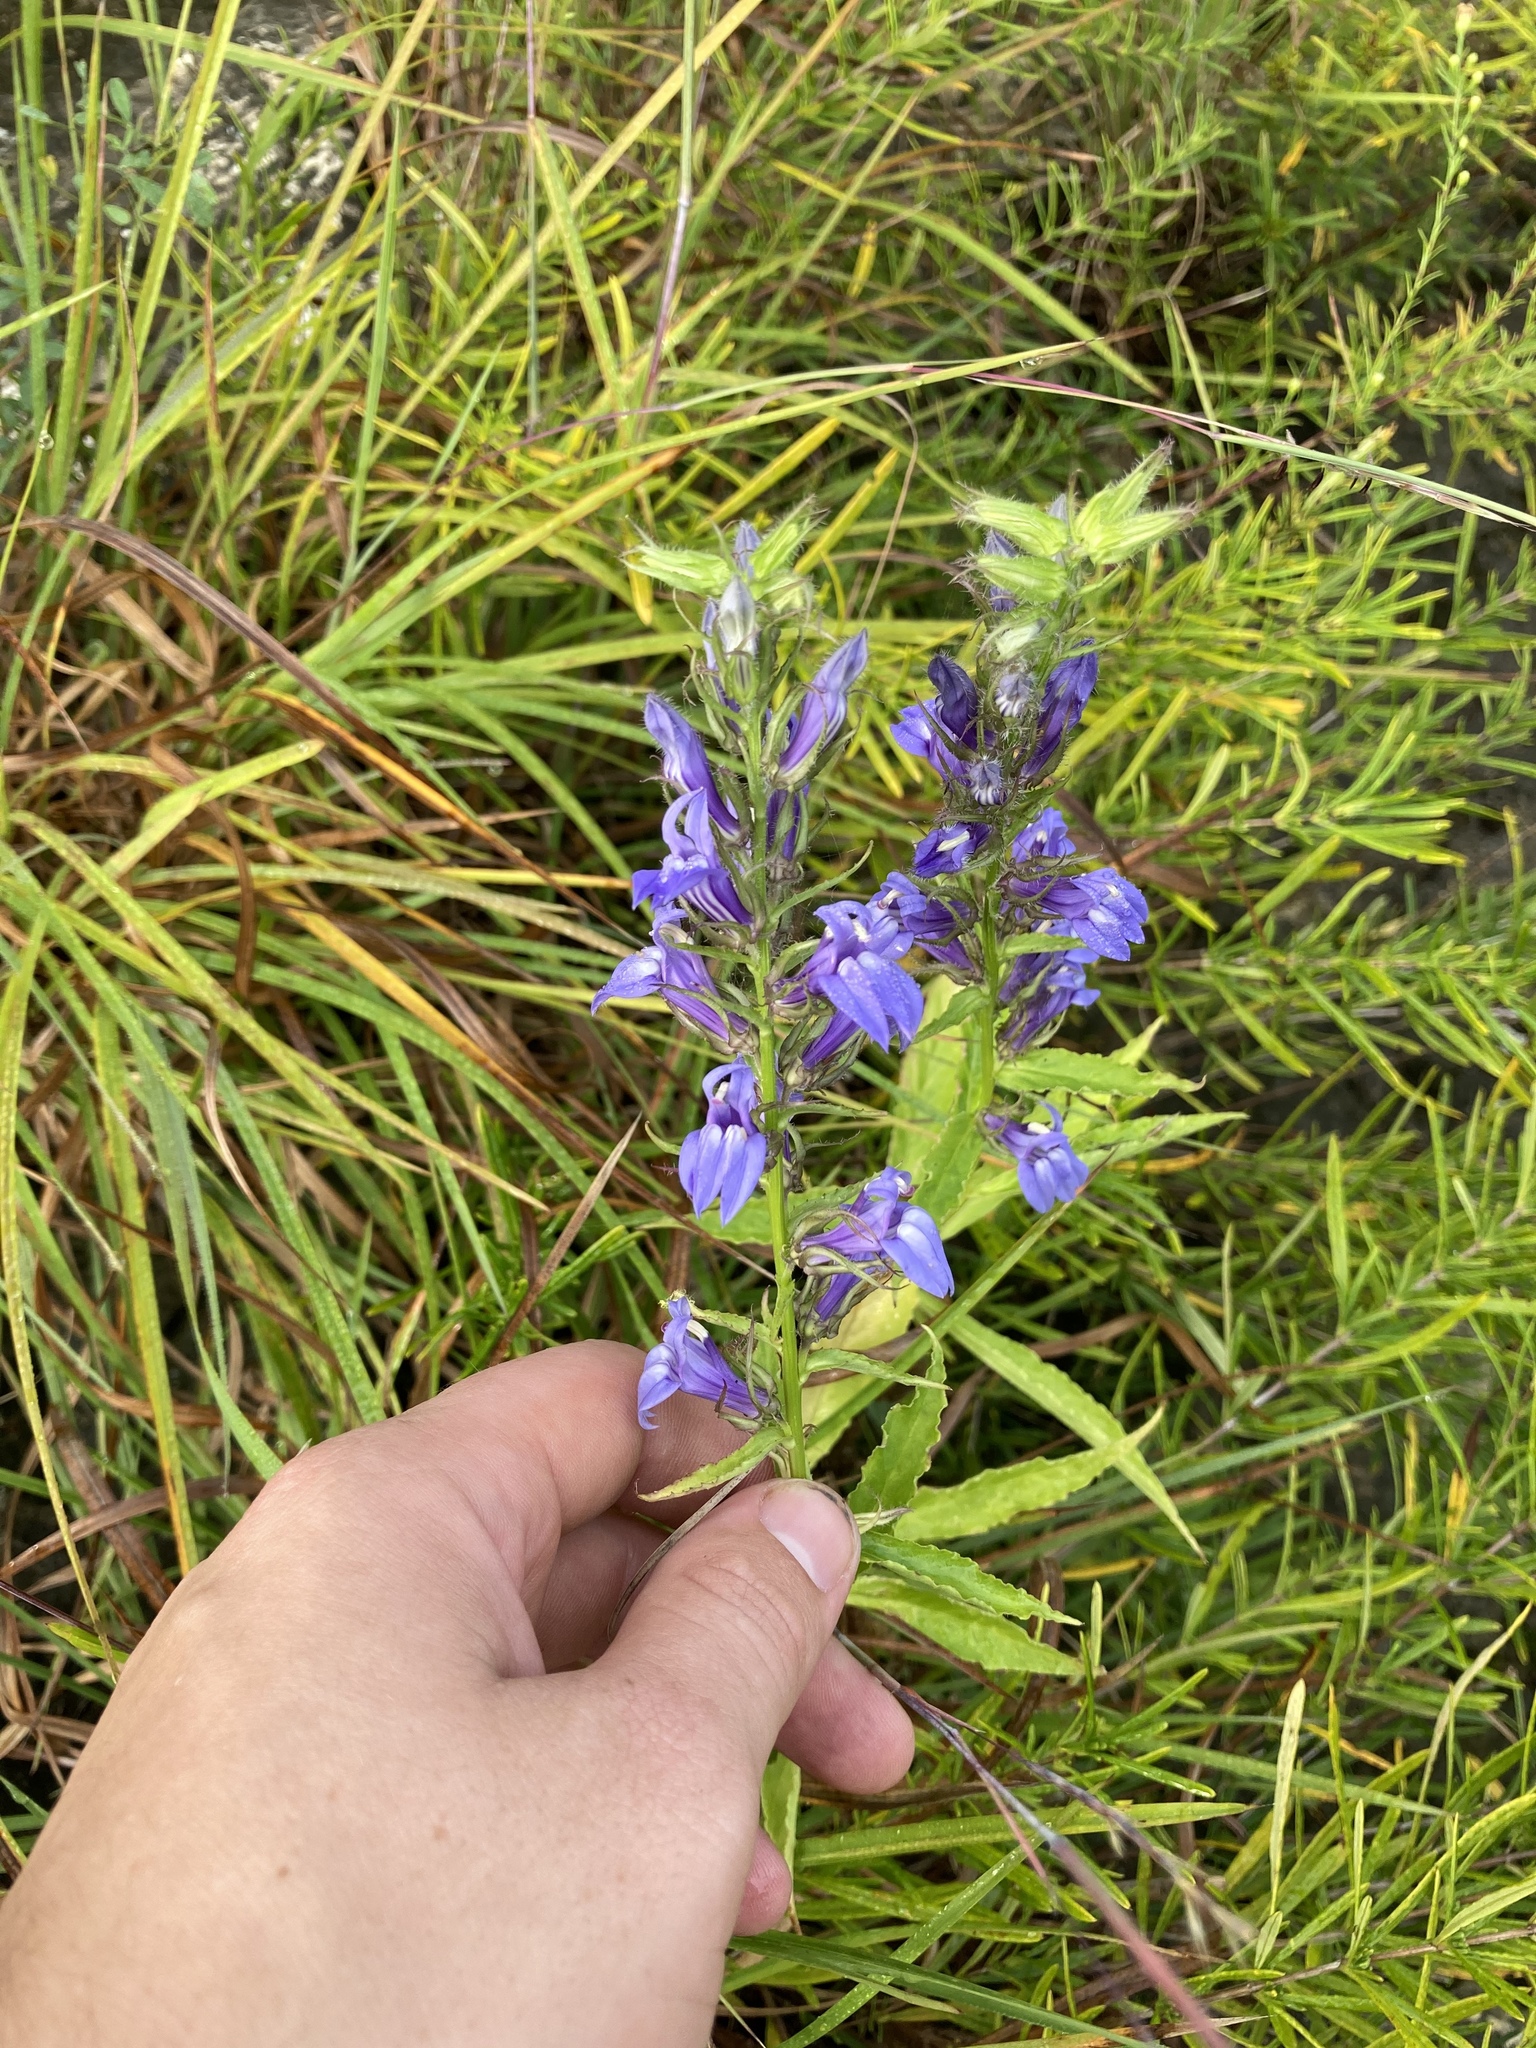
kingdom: Plantae
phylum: Tracheophyta
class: Magnoliopsida
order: Asterales
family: Campanulaceae
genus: Lobelia
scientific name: Lobelia siphilitica
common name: Great lobelia
